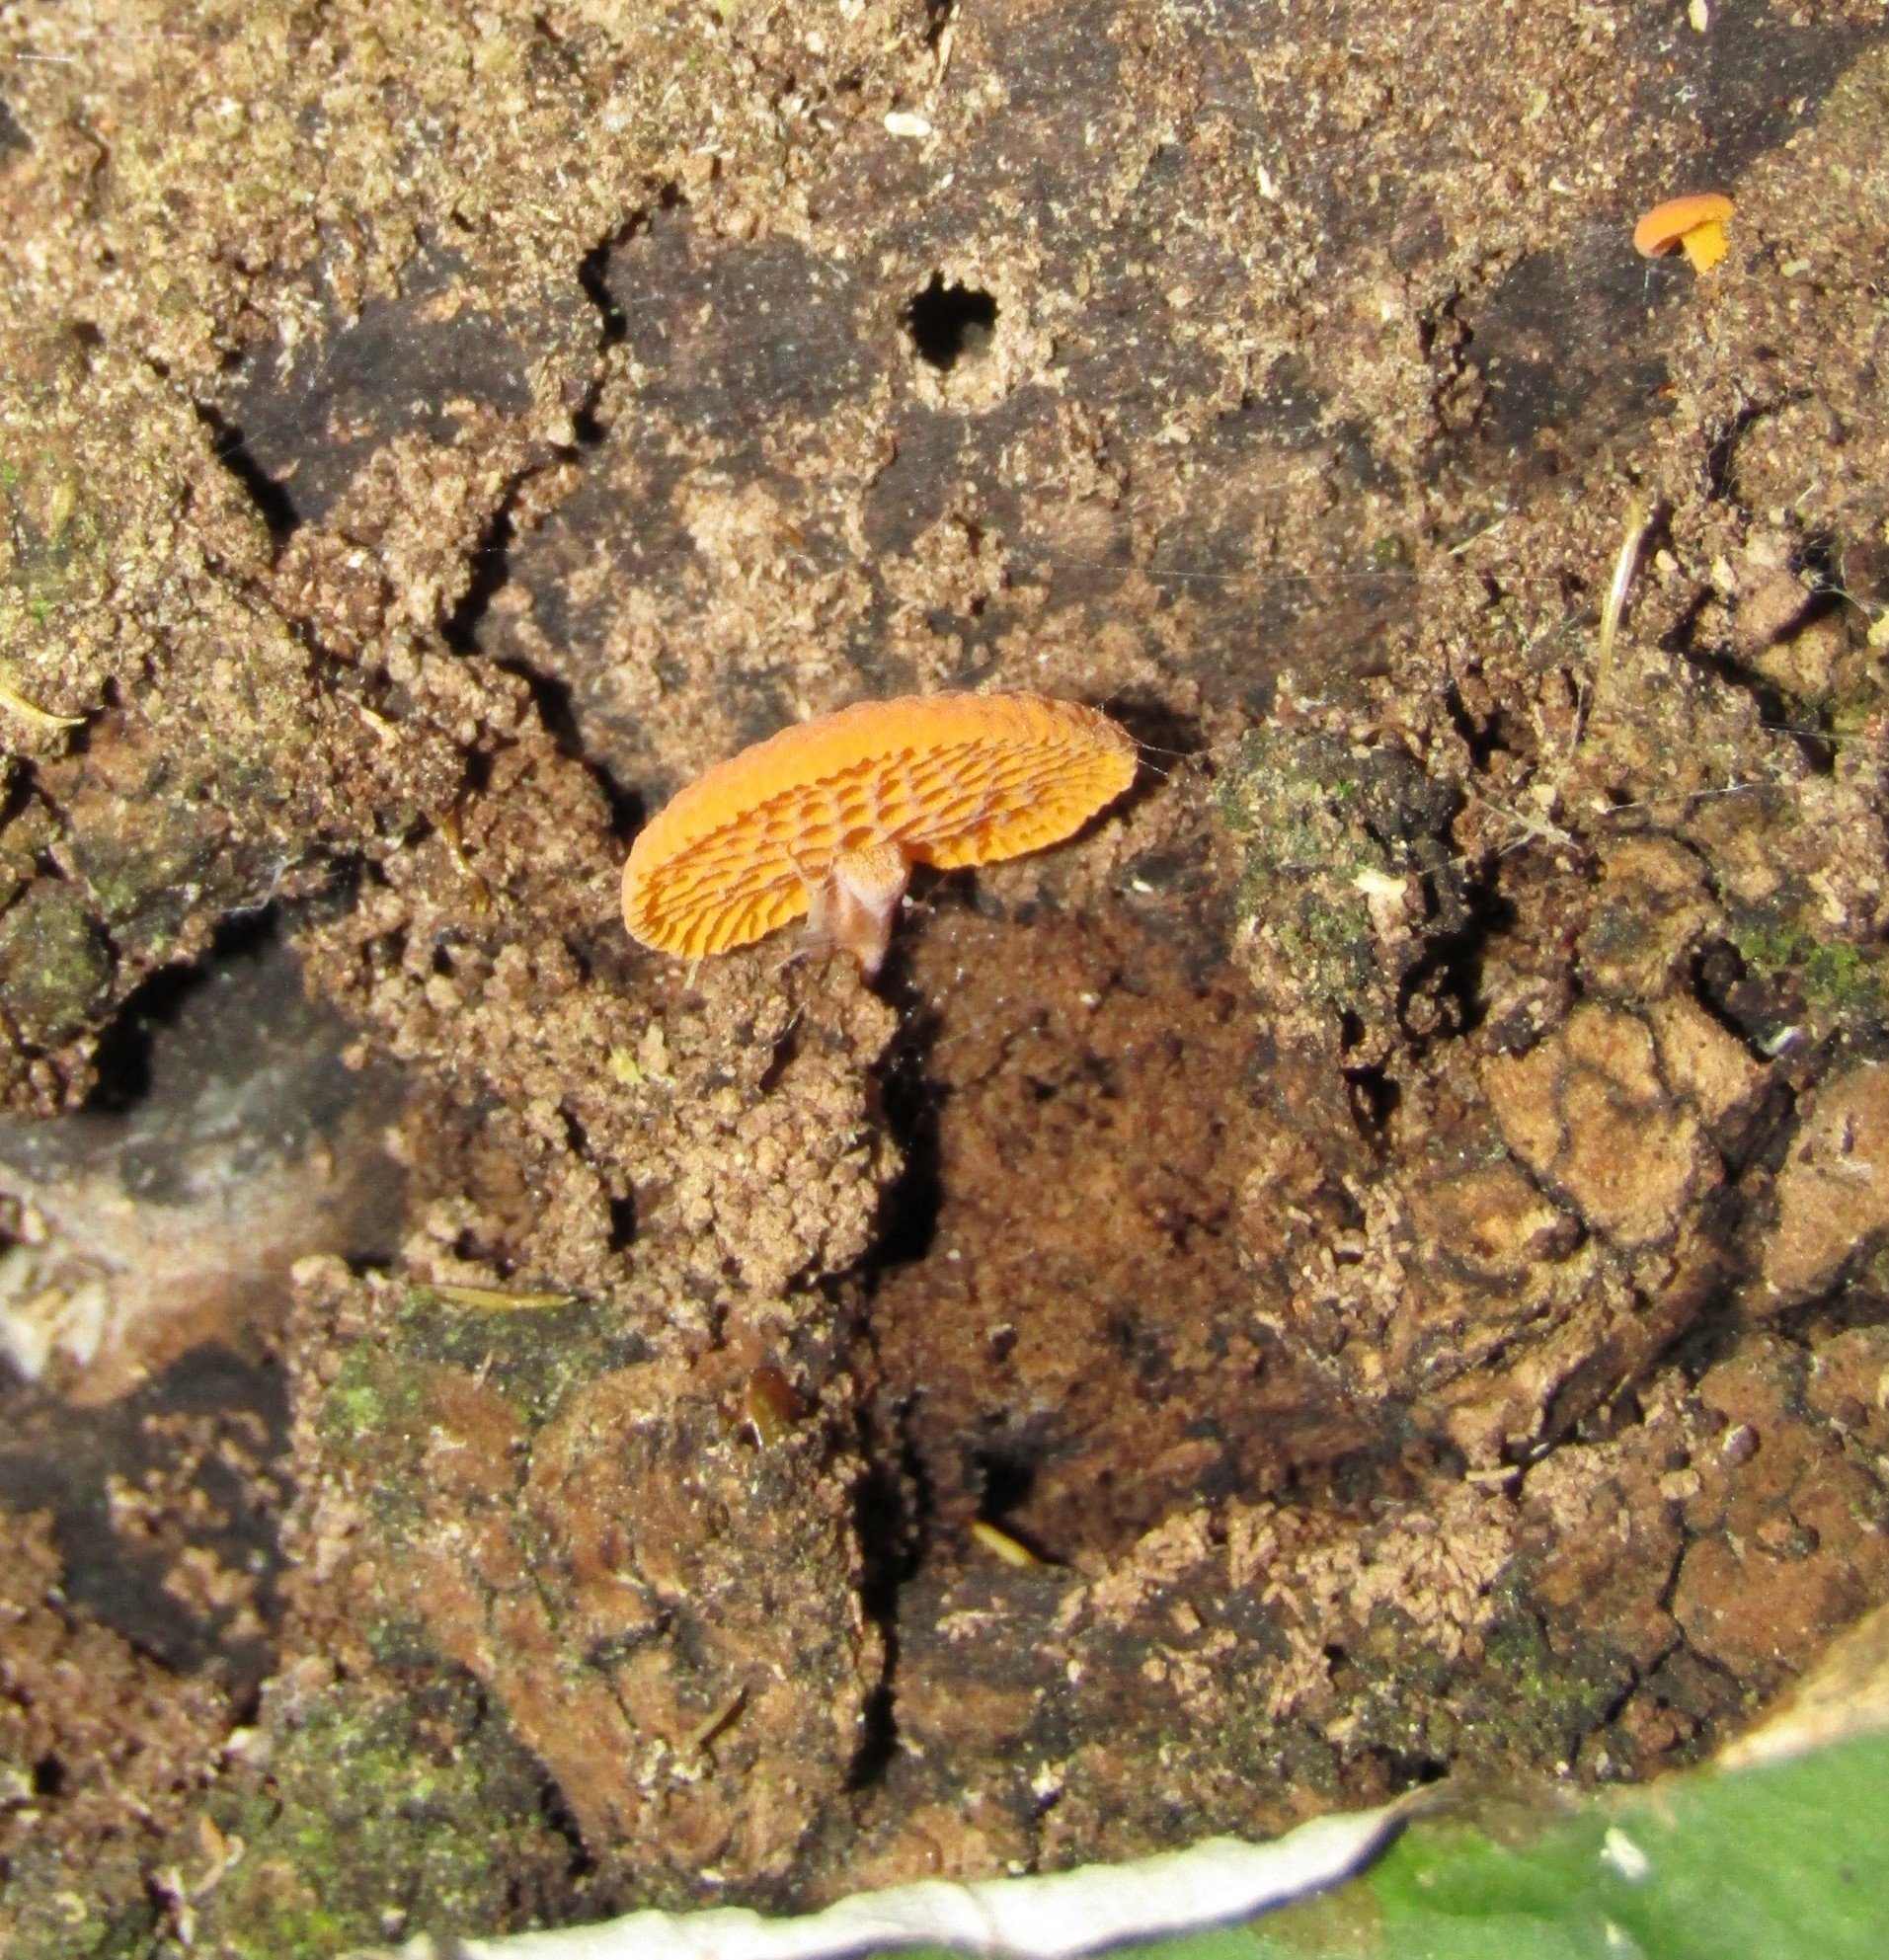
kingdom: Fungi
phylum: Basidiomycota
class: Agaricomycetes
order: Agaricales
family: Mycenaceae
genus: Favolaschia
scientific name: Favolaschia claudopus
